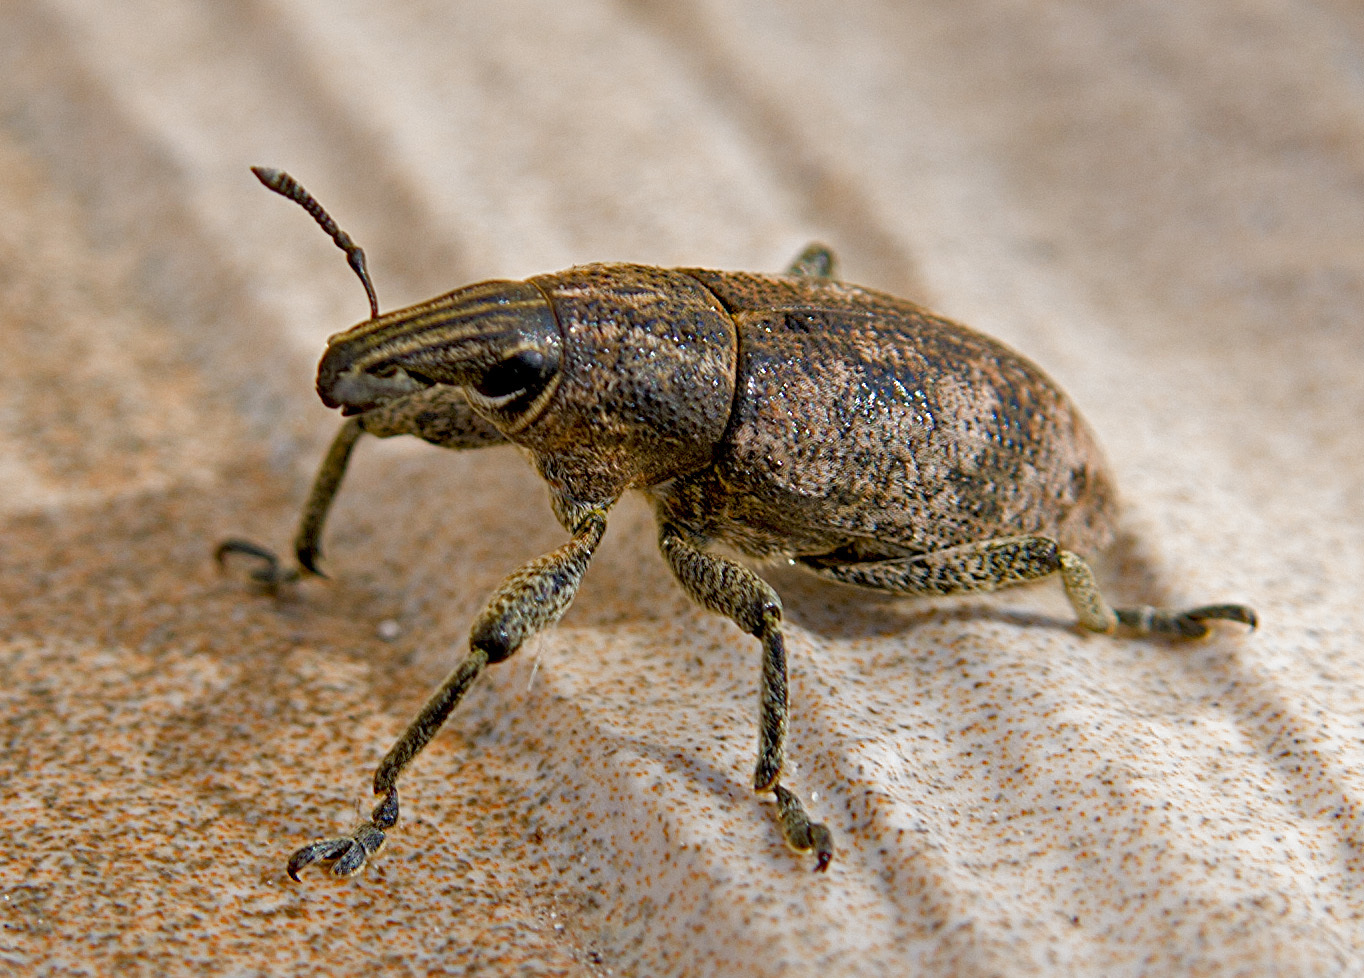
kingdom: Animalia
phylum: Arthropoda
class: Insecta
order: Coleoptera
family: Curculionidae
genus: Cleonis
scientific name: Cleonis pigra
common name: Large thistle weevil
